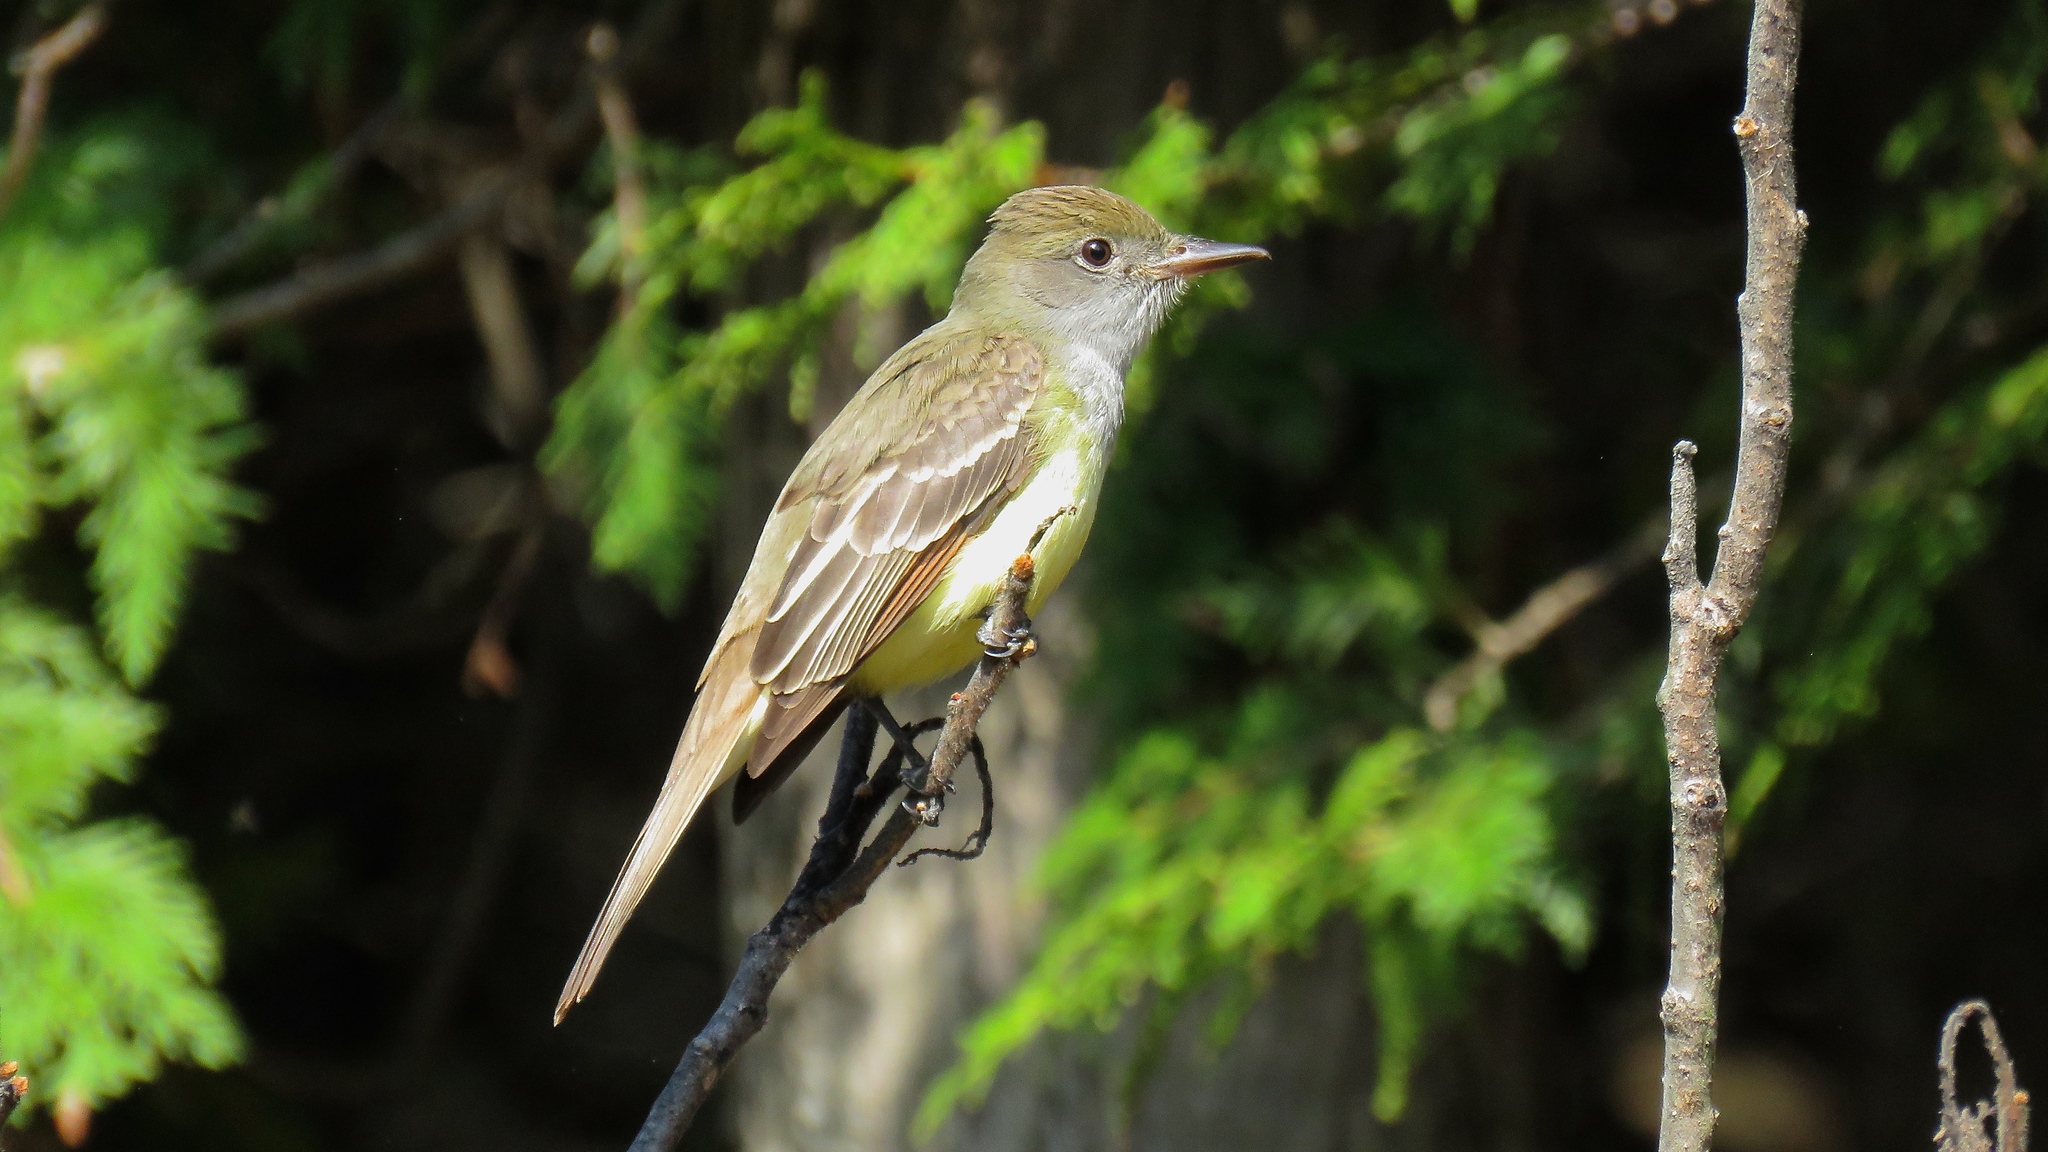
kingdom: Animalia
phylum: Chordata
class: Aves
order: Passeriformes
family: Tyrannidae
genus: Myiarchus
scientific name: Myiarchus crinitus
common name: Great crested flycatcher
